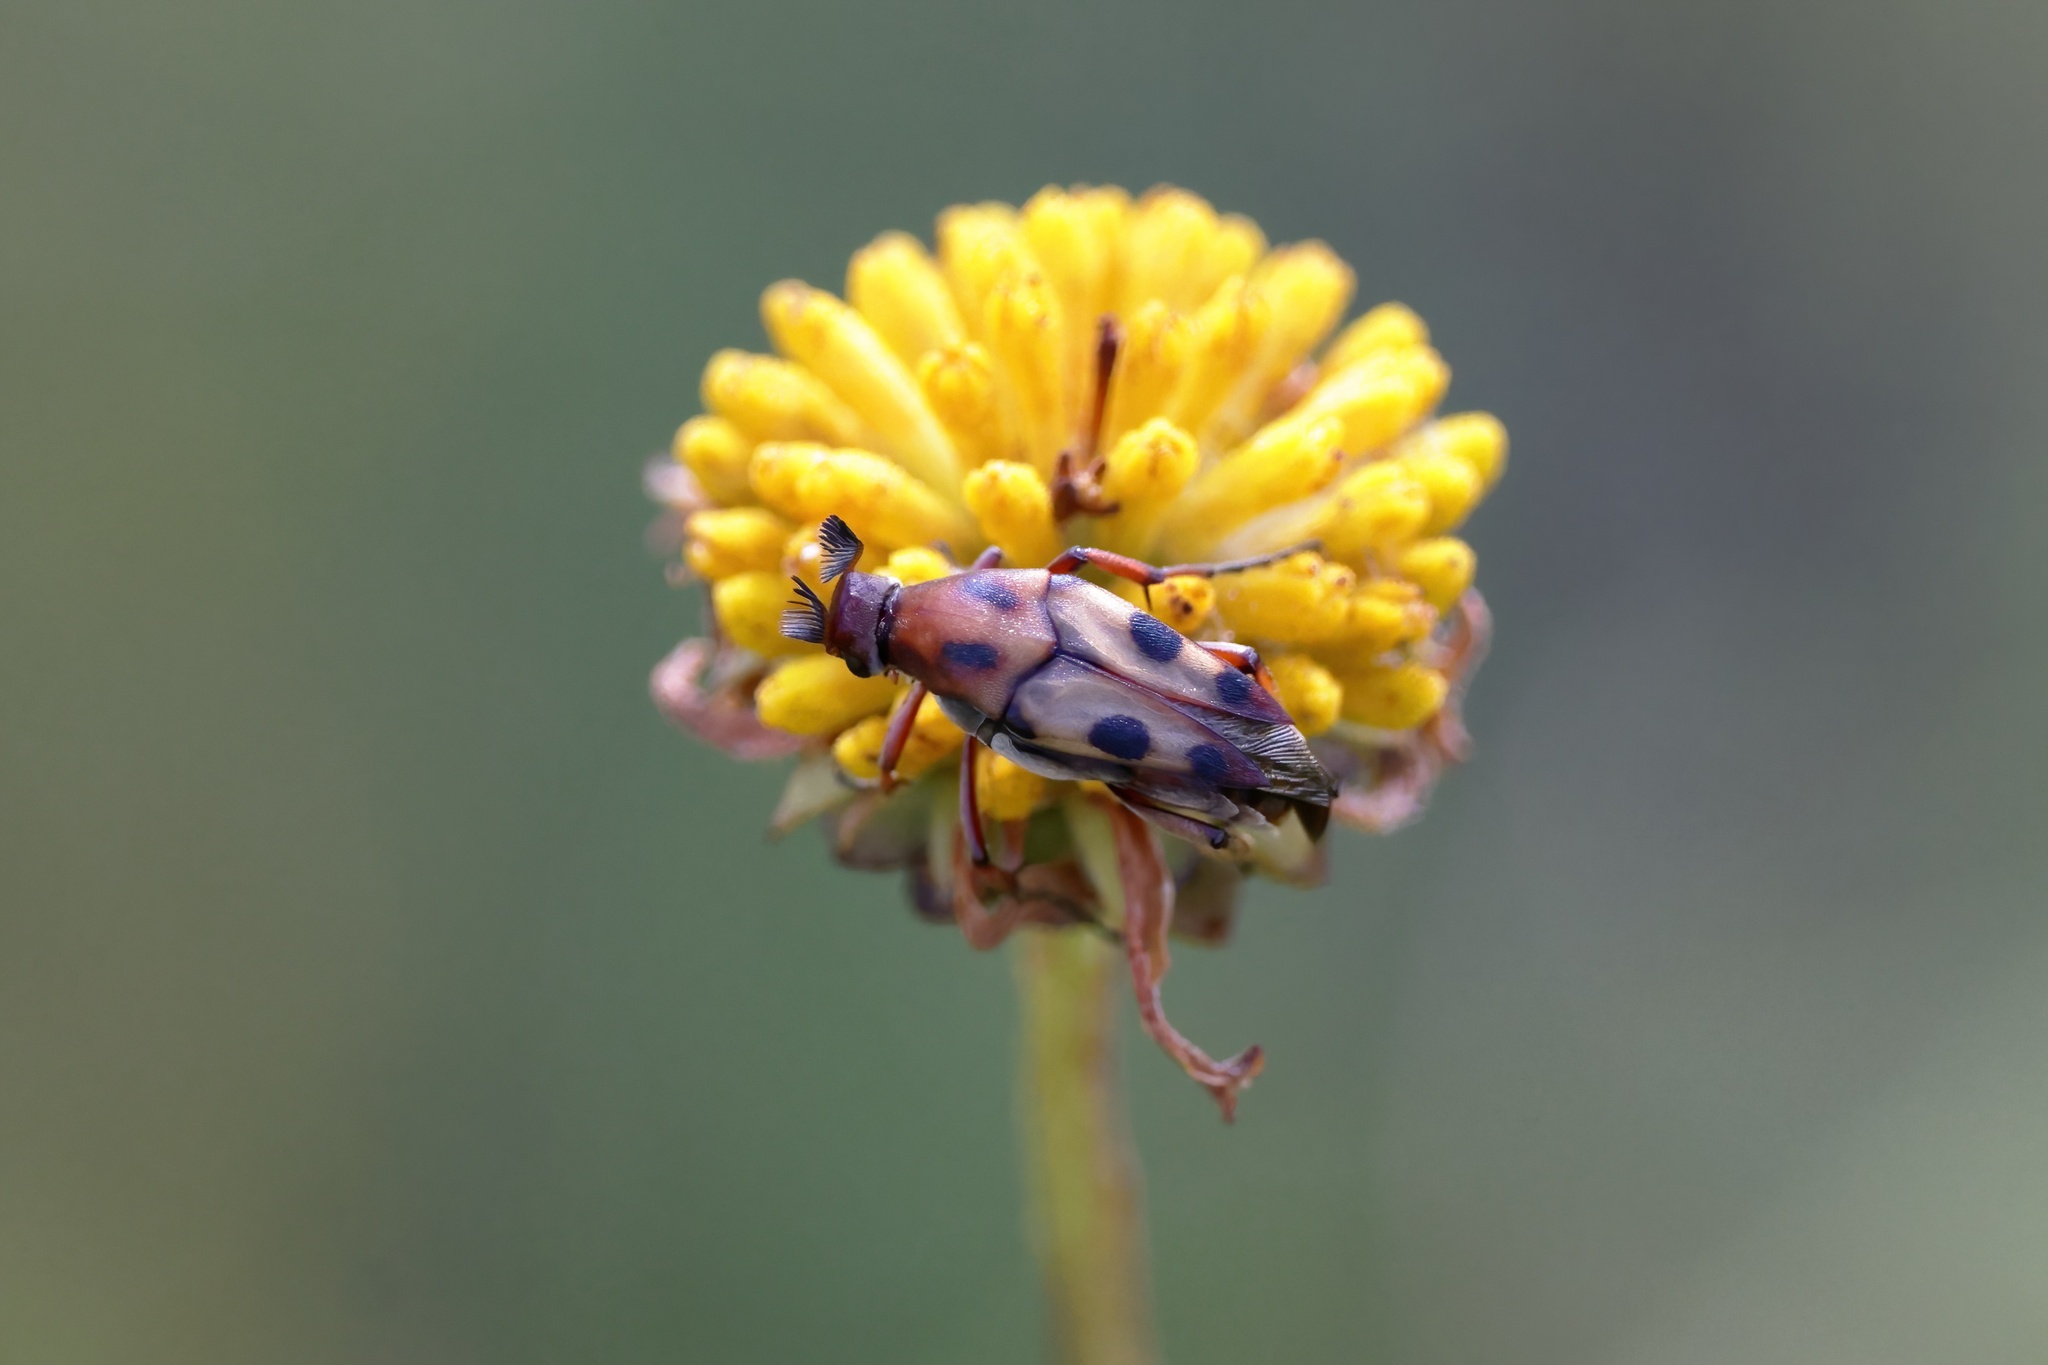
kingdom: Animalia
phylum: Arthropoda
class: Insecta
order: Coleoptera
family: Ripiphoridae
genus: Macrosiagon
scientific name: Macrosiagon octomaculatus
